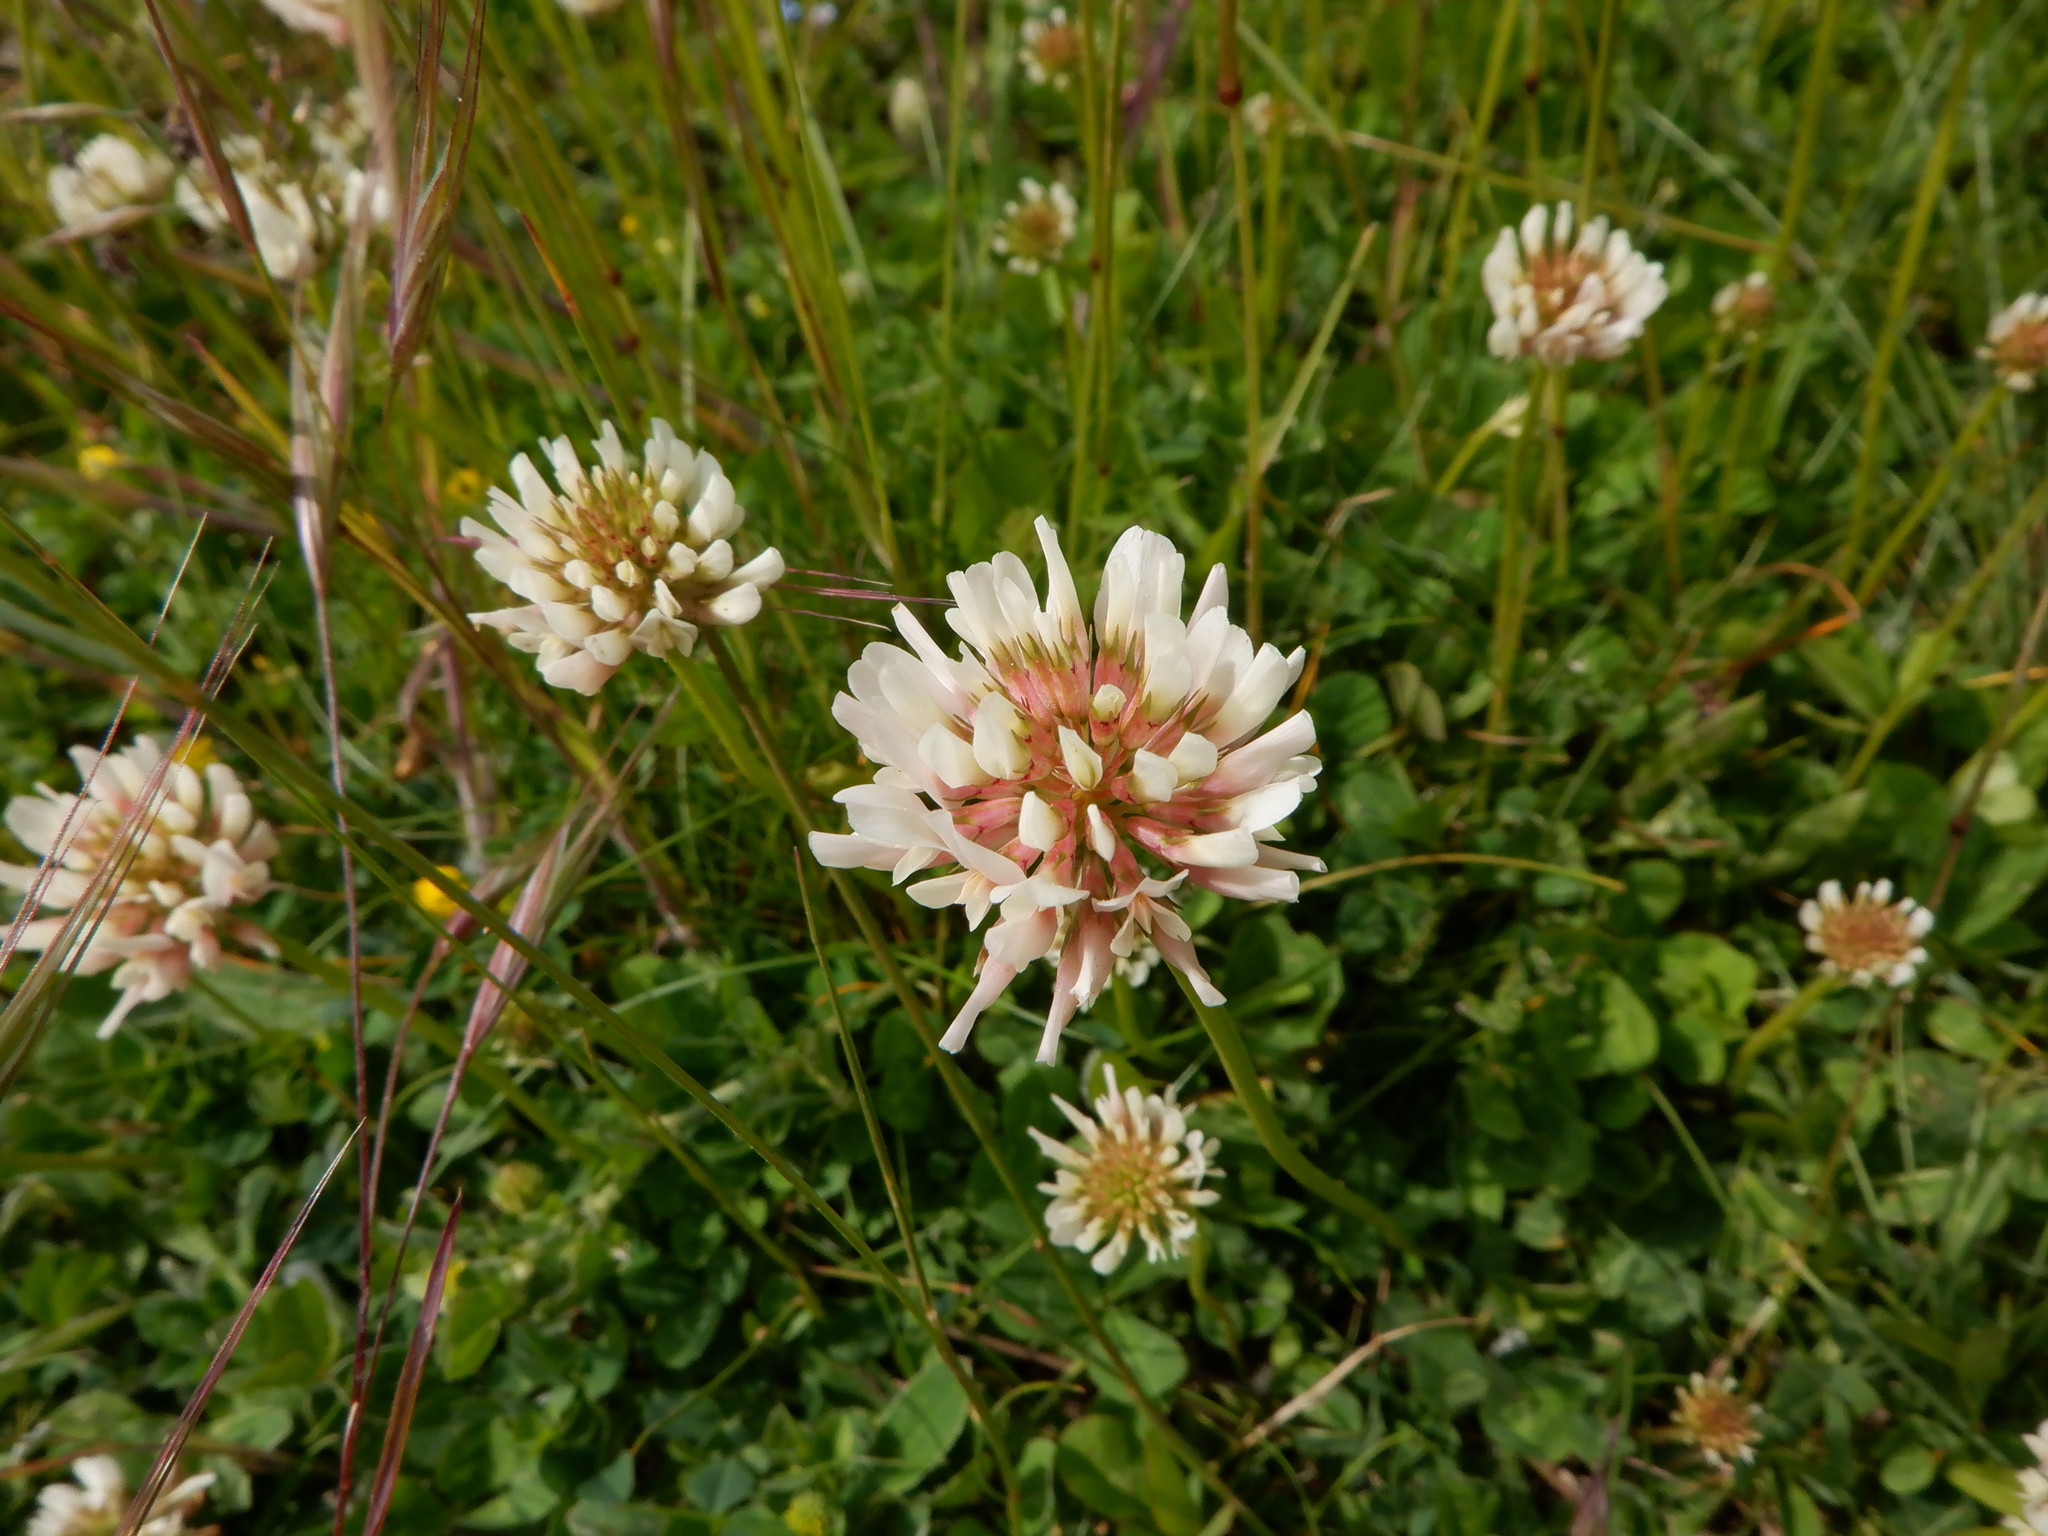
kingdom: Plantae
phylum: Tracheophyta
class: Magnoliopsida
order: Fabales
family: Fabaceae
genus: Trifolium
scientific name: Trifolium repens
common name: White clover
